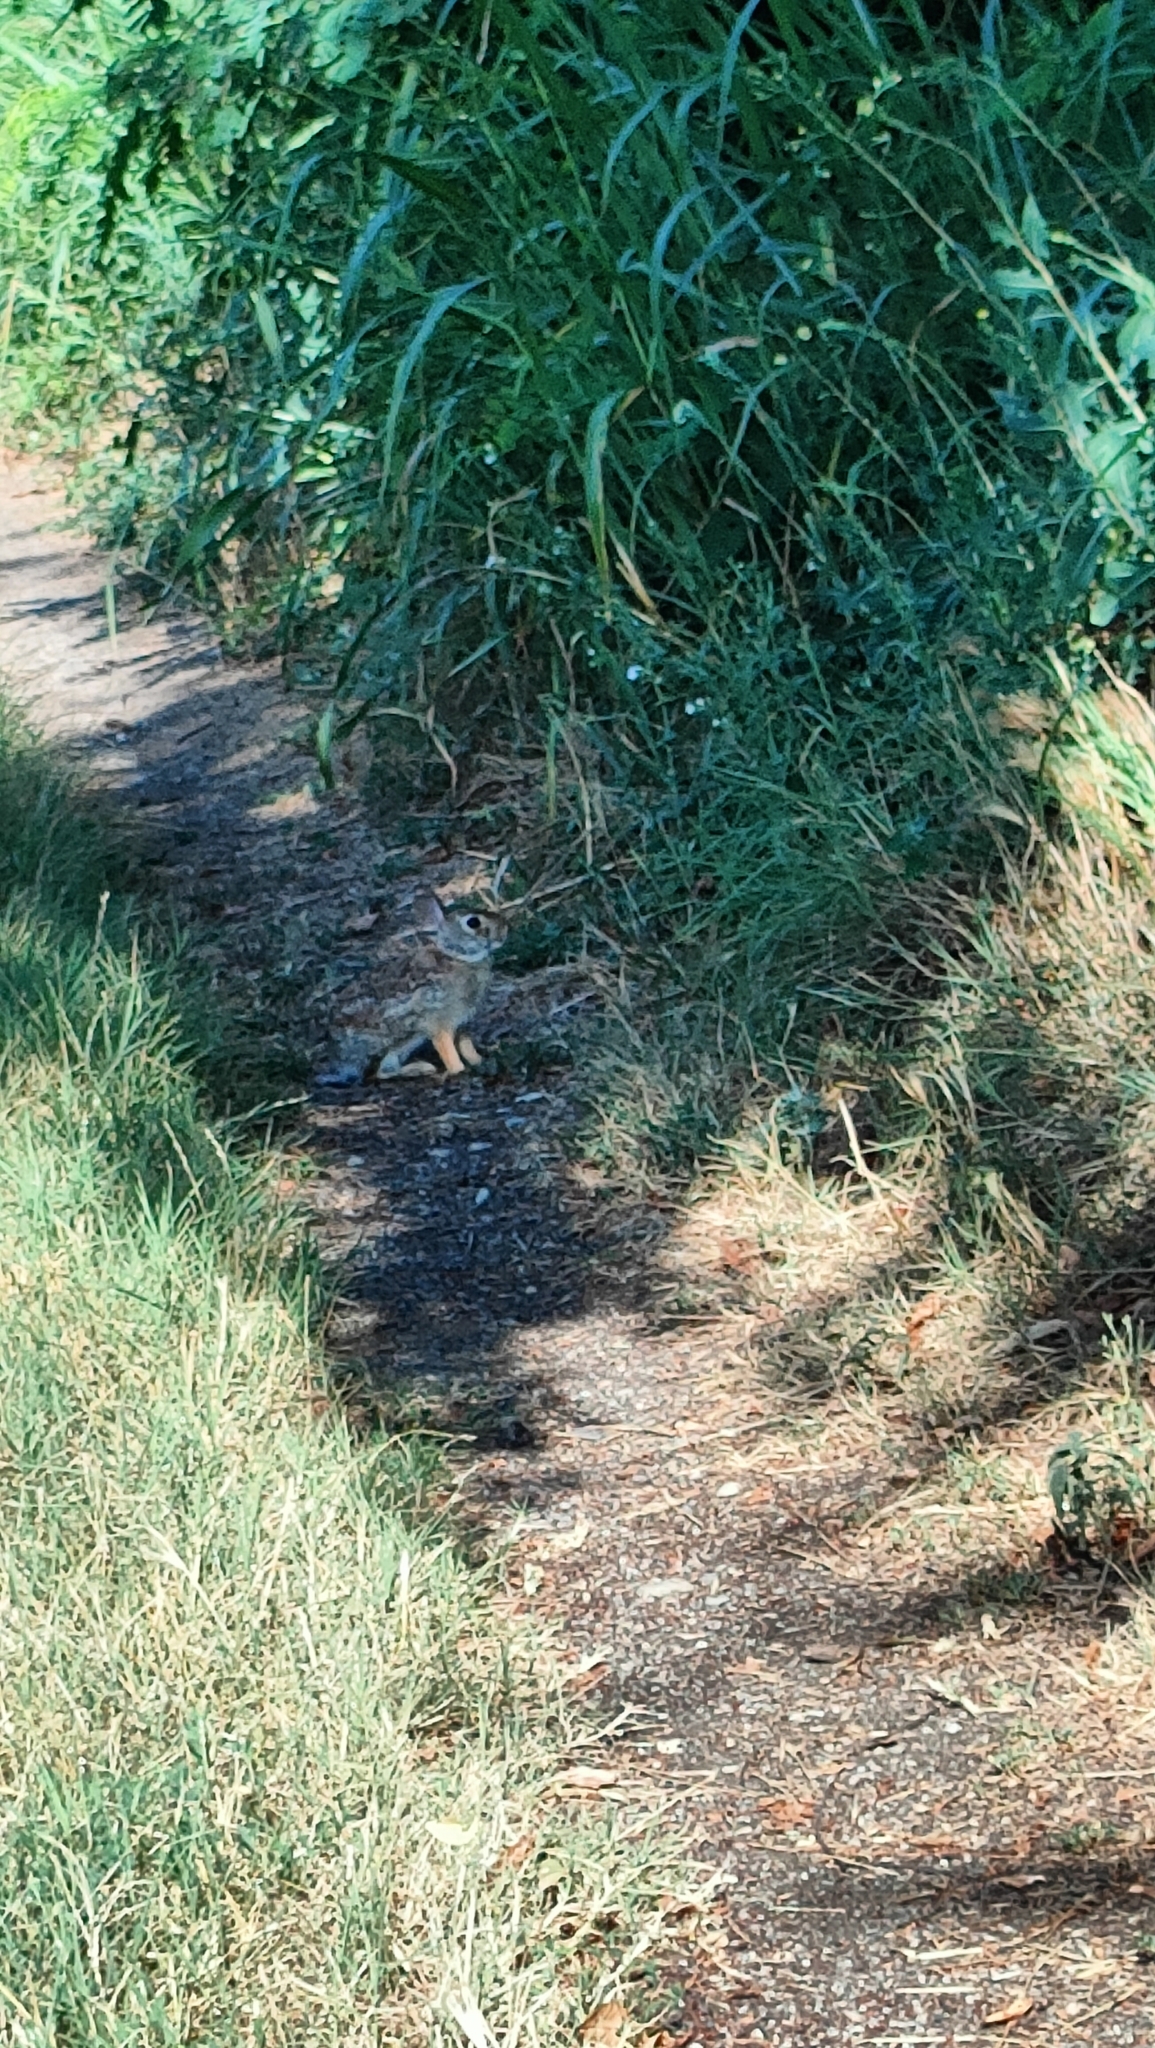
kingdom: Animalia
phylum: Chordata
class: Mammalia
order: Lagomorpha
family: Leporidae
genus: Sylvilagus
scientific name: Sylvilagus floridanus
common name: Eastern cottontail
